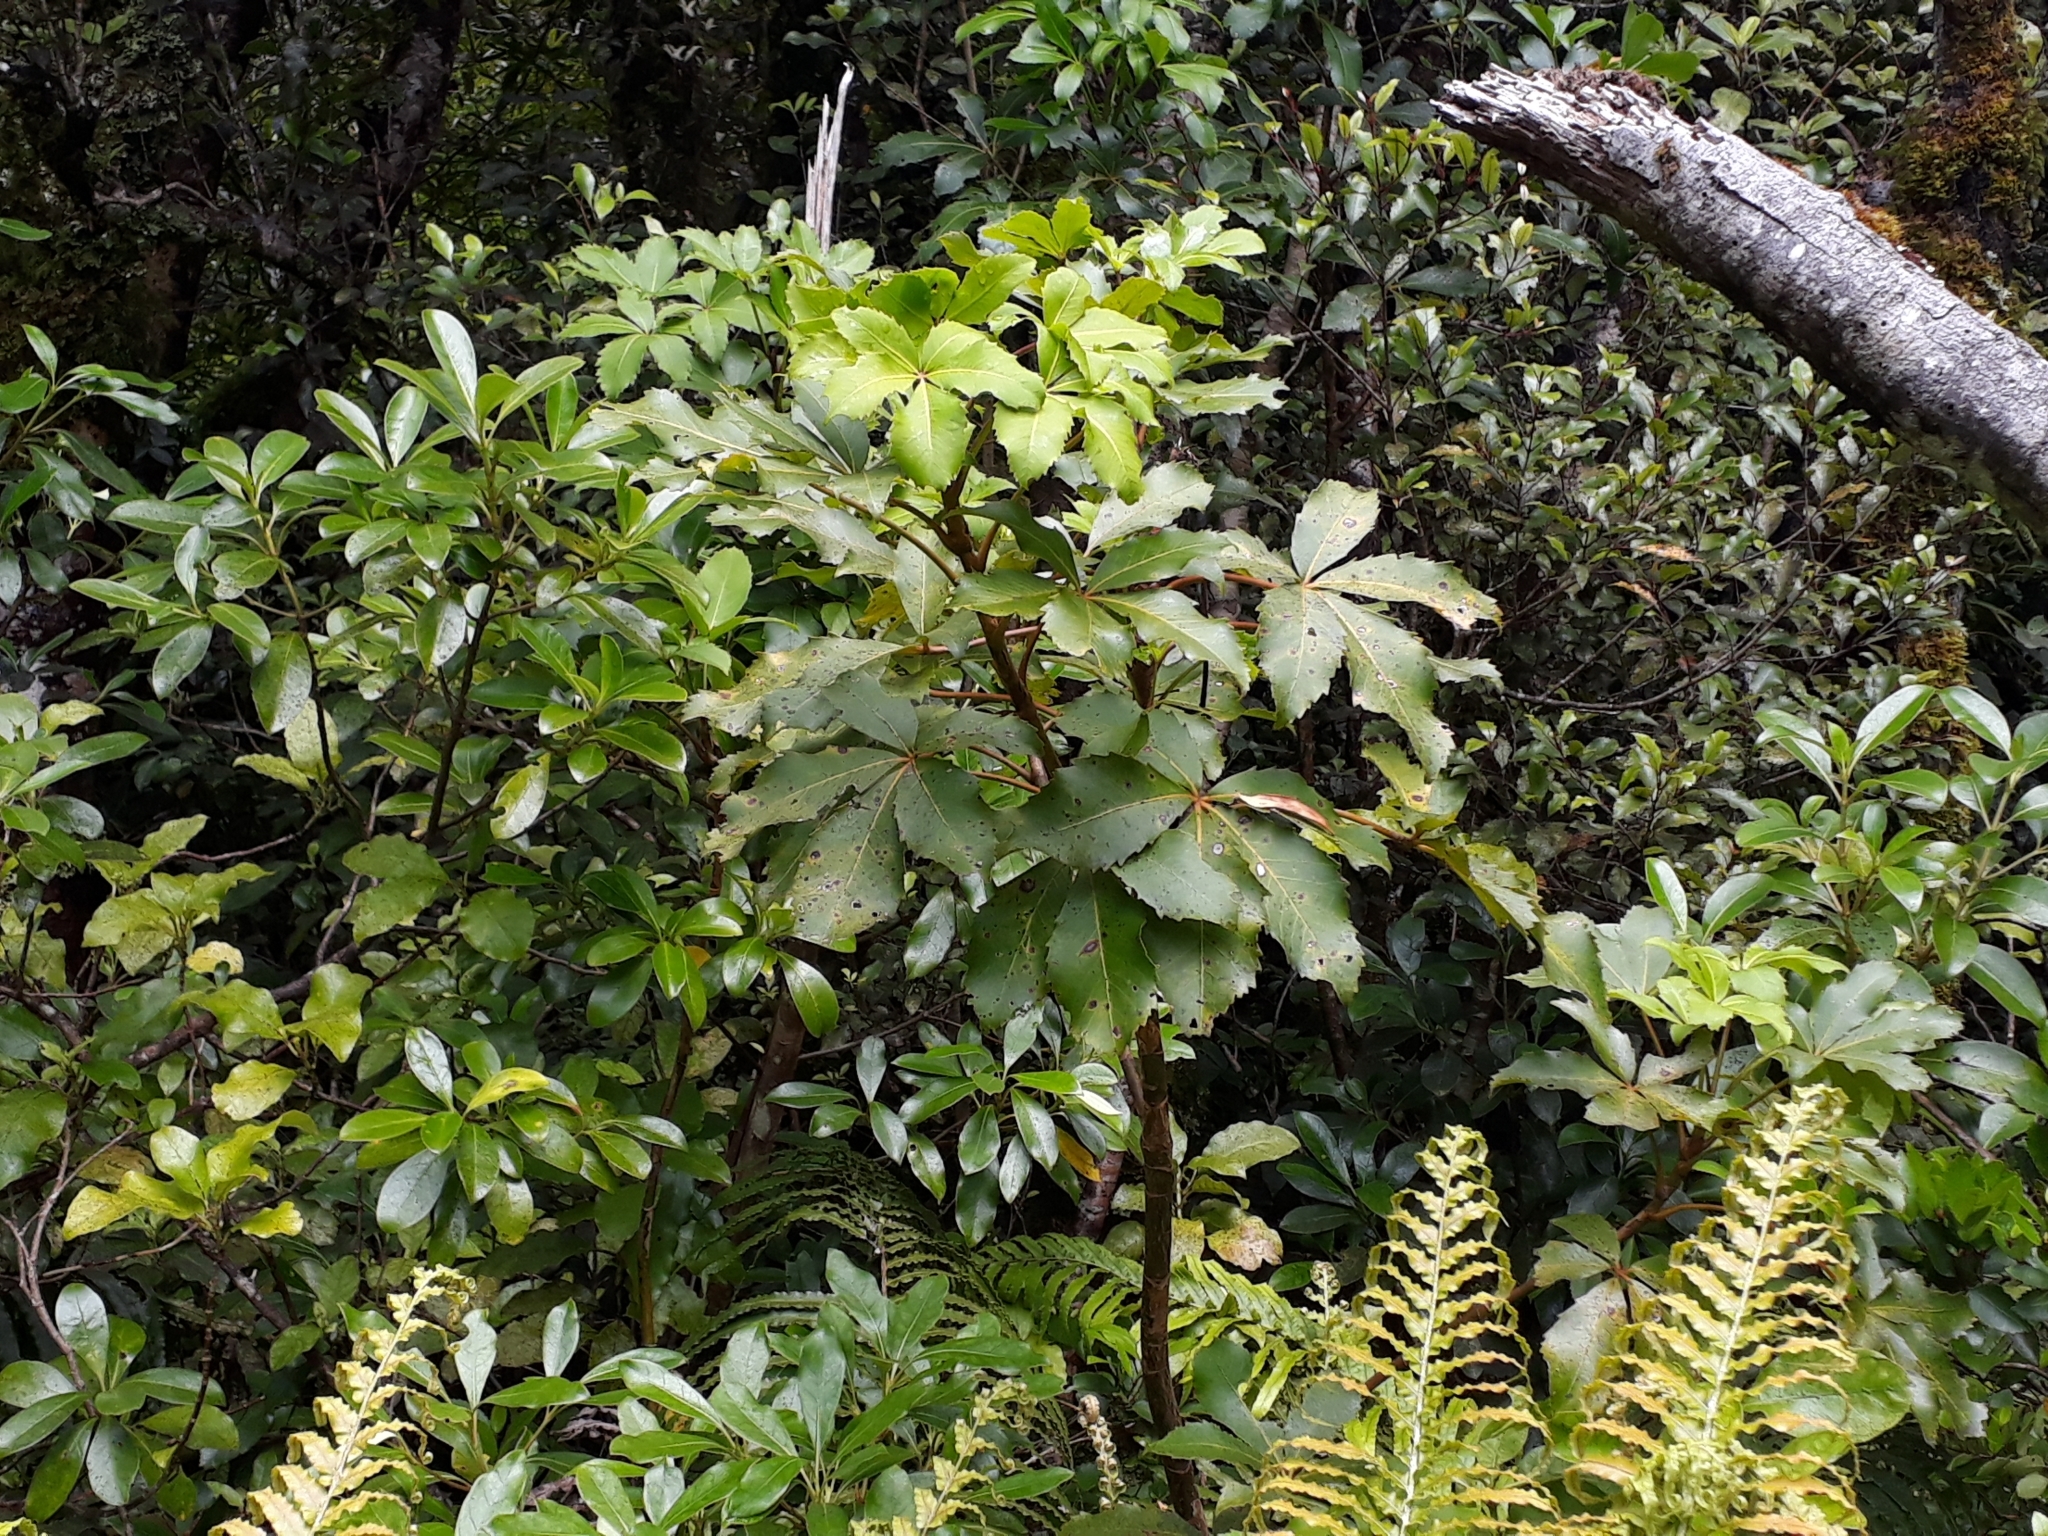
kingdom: Plantae
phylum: Tracheophyta
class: Magnoliopsida
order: Apiales
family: Araliaceae
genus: Neopanax
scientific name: Neopanax colensoi
